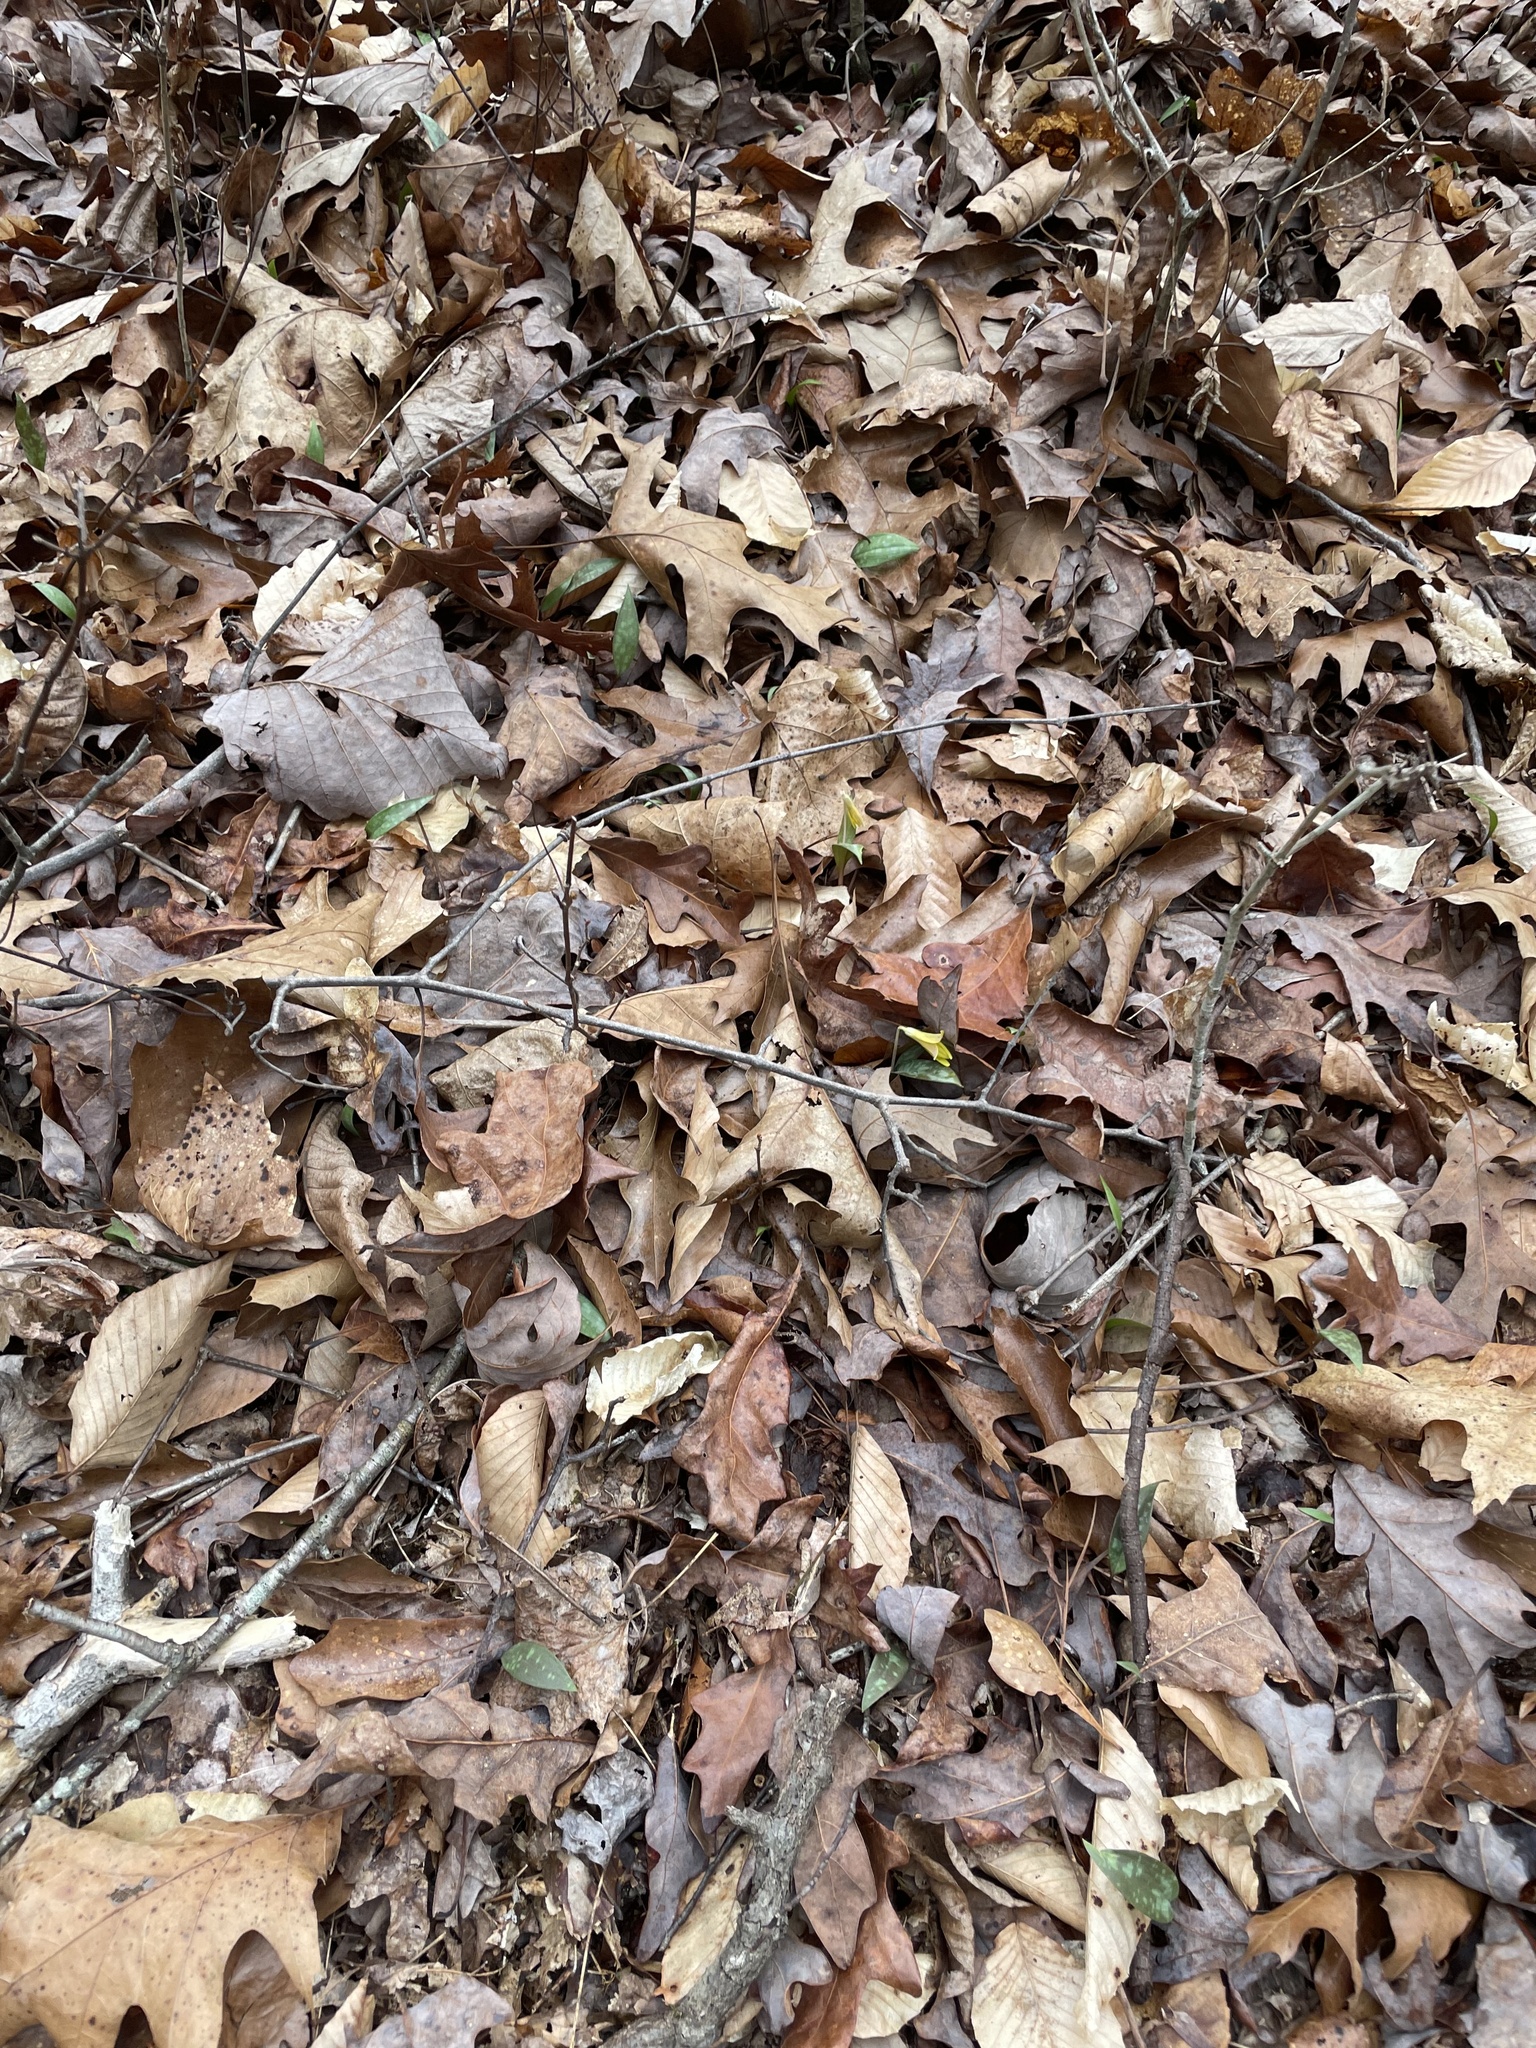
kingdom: Plantae
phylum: Tracheophyta
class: Liliopsida
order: Liliales
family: Liliaceae
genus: Erythronium
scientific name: Erythronium umbilicatum
